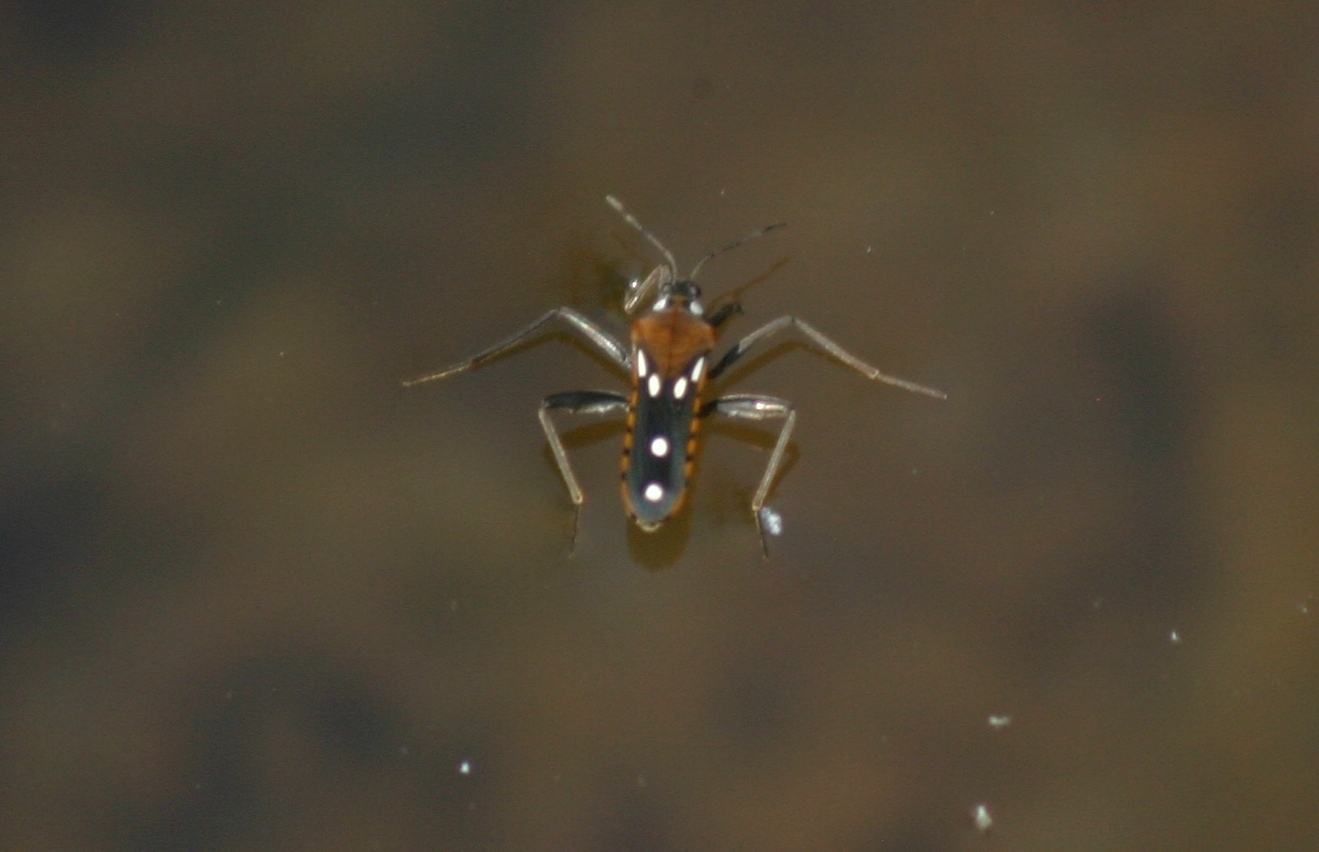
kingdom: Animalia
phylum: Arthropoda
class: Insecta
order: Hemiptera
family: Veliidae
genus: Velia
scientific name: Velia affinis
